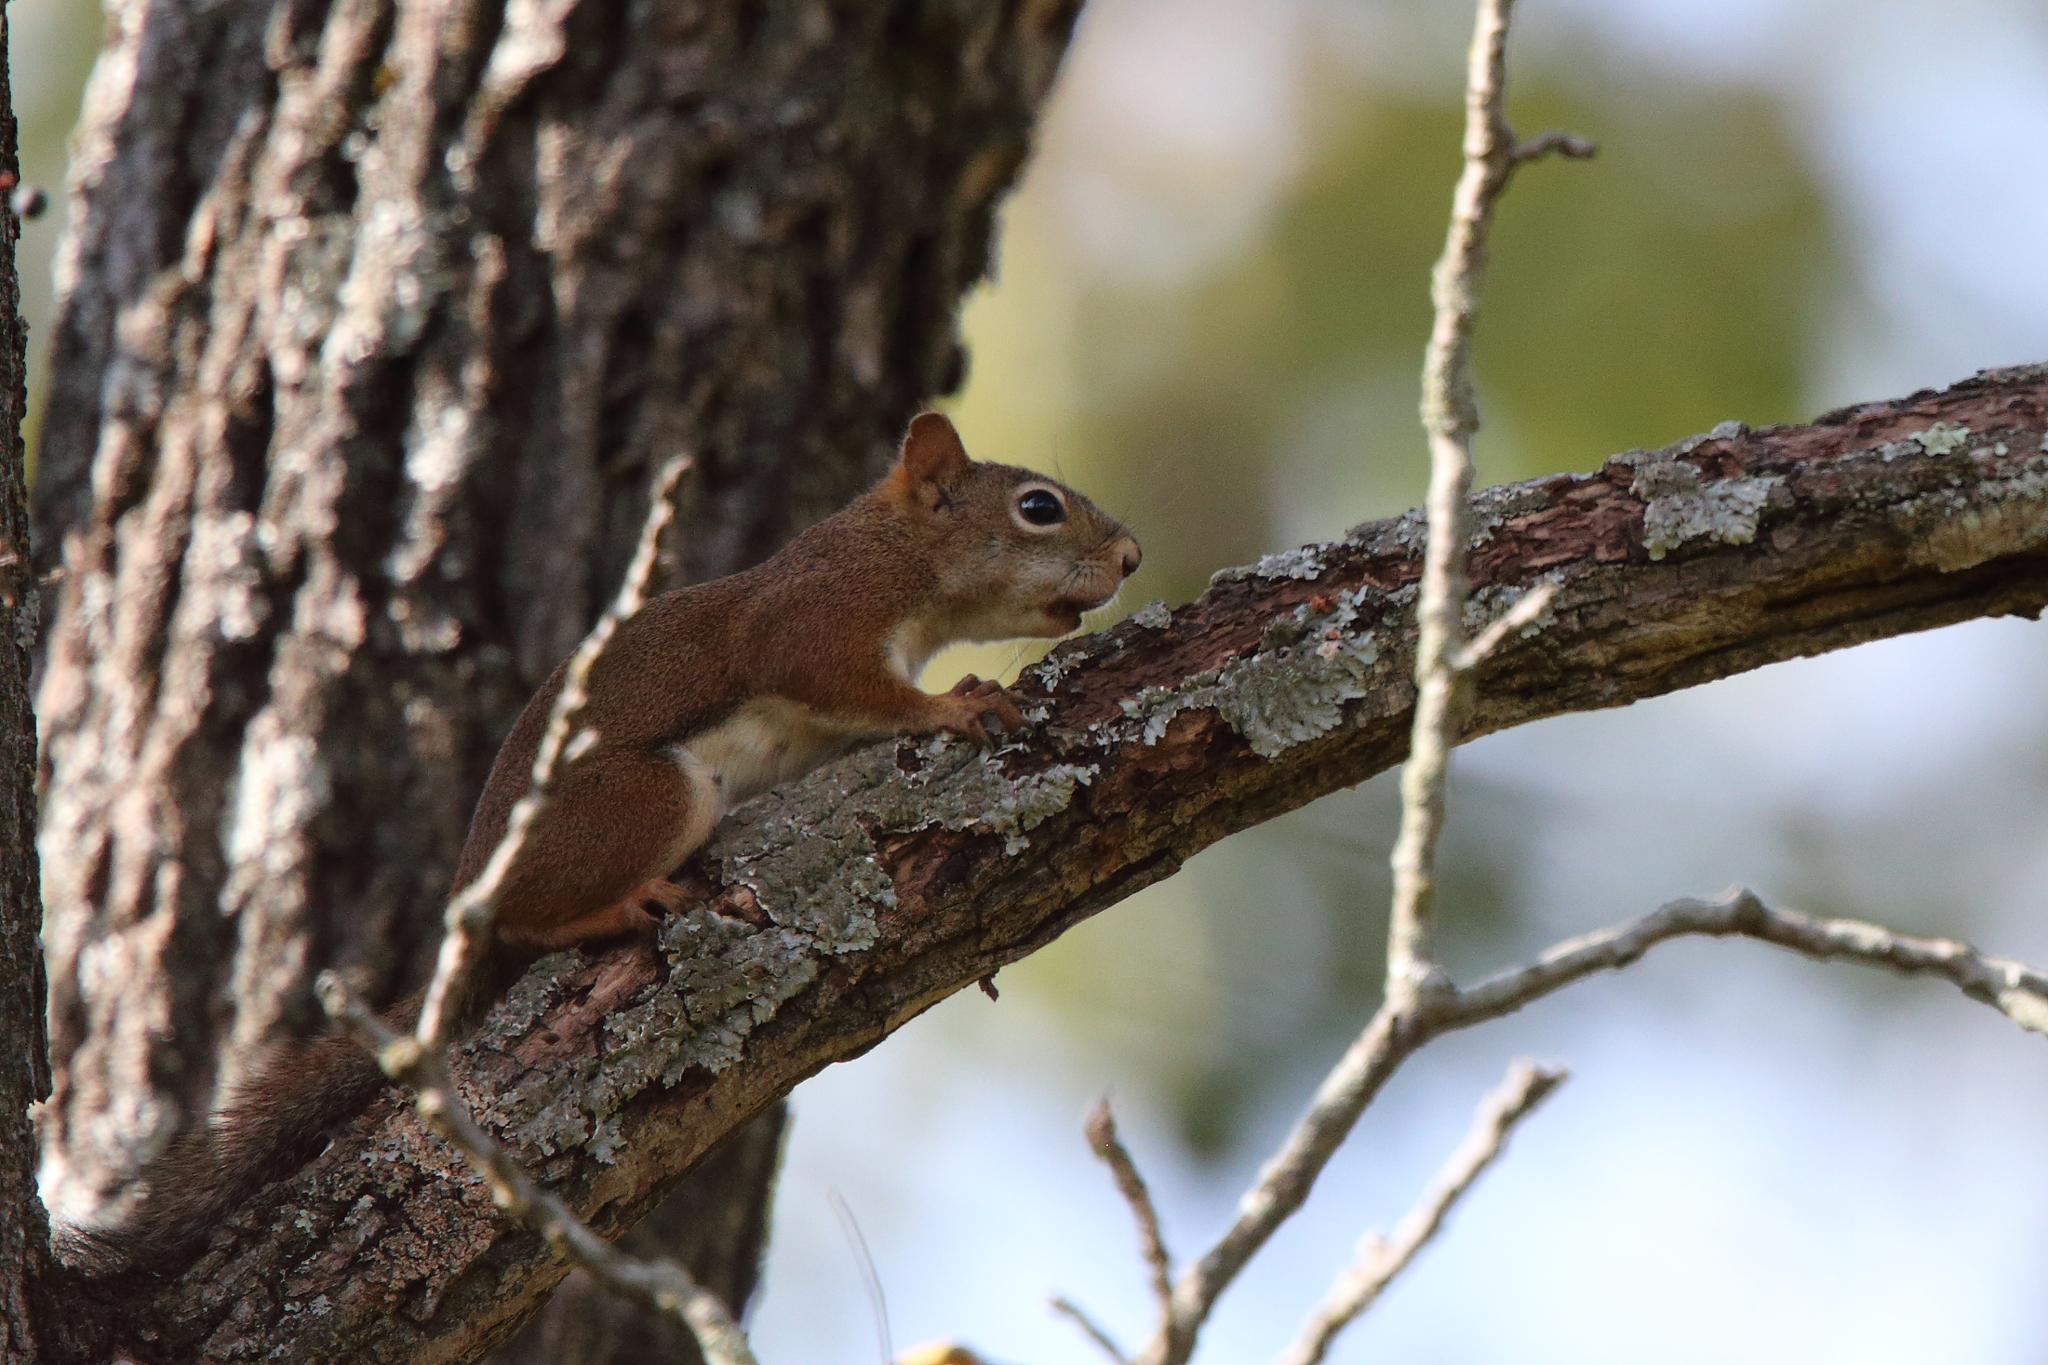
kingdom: Animalia
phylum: Chordata
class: Mammalia
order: Rodentia
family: Sciuridae
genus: Tamiasciurus
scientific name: Tamiasciurus hudsonicus
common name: Red squirrel
